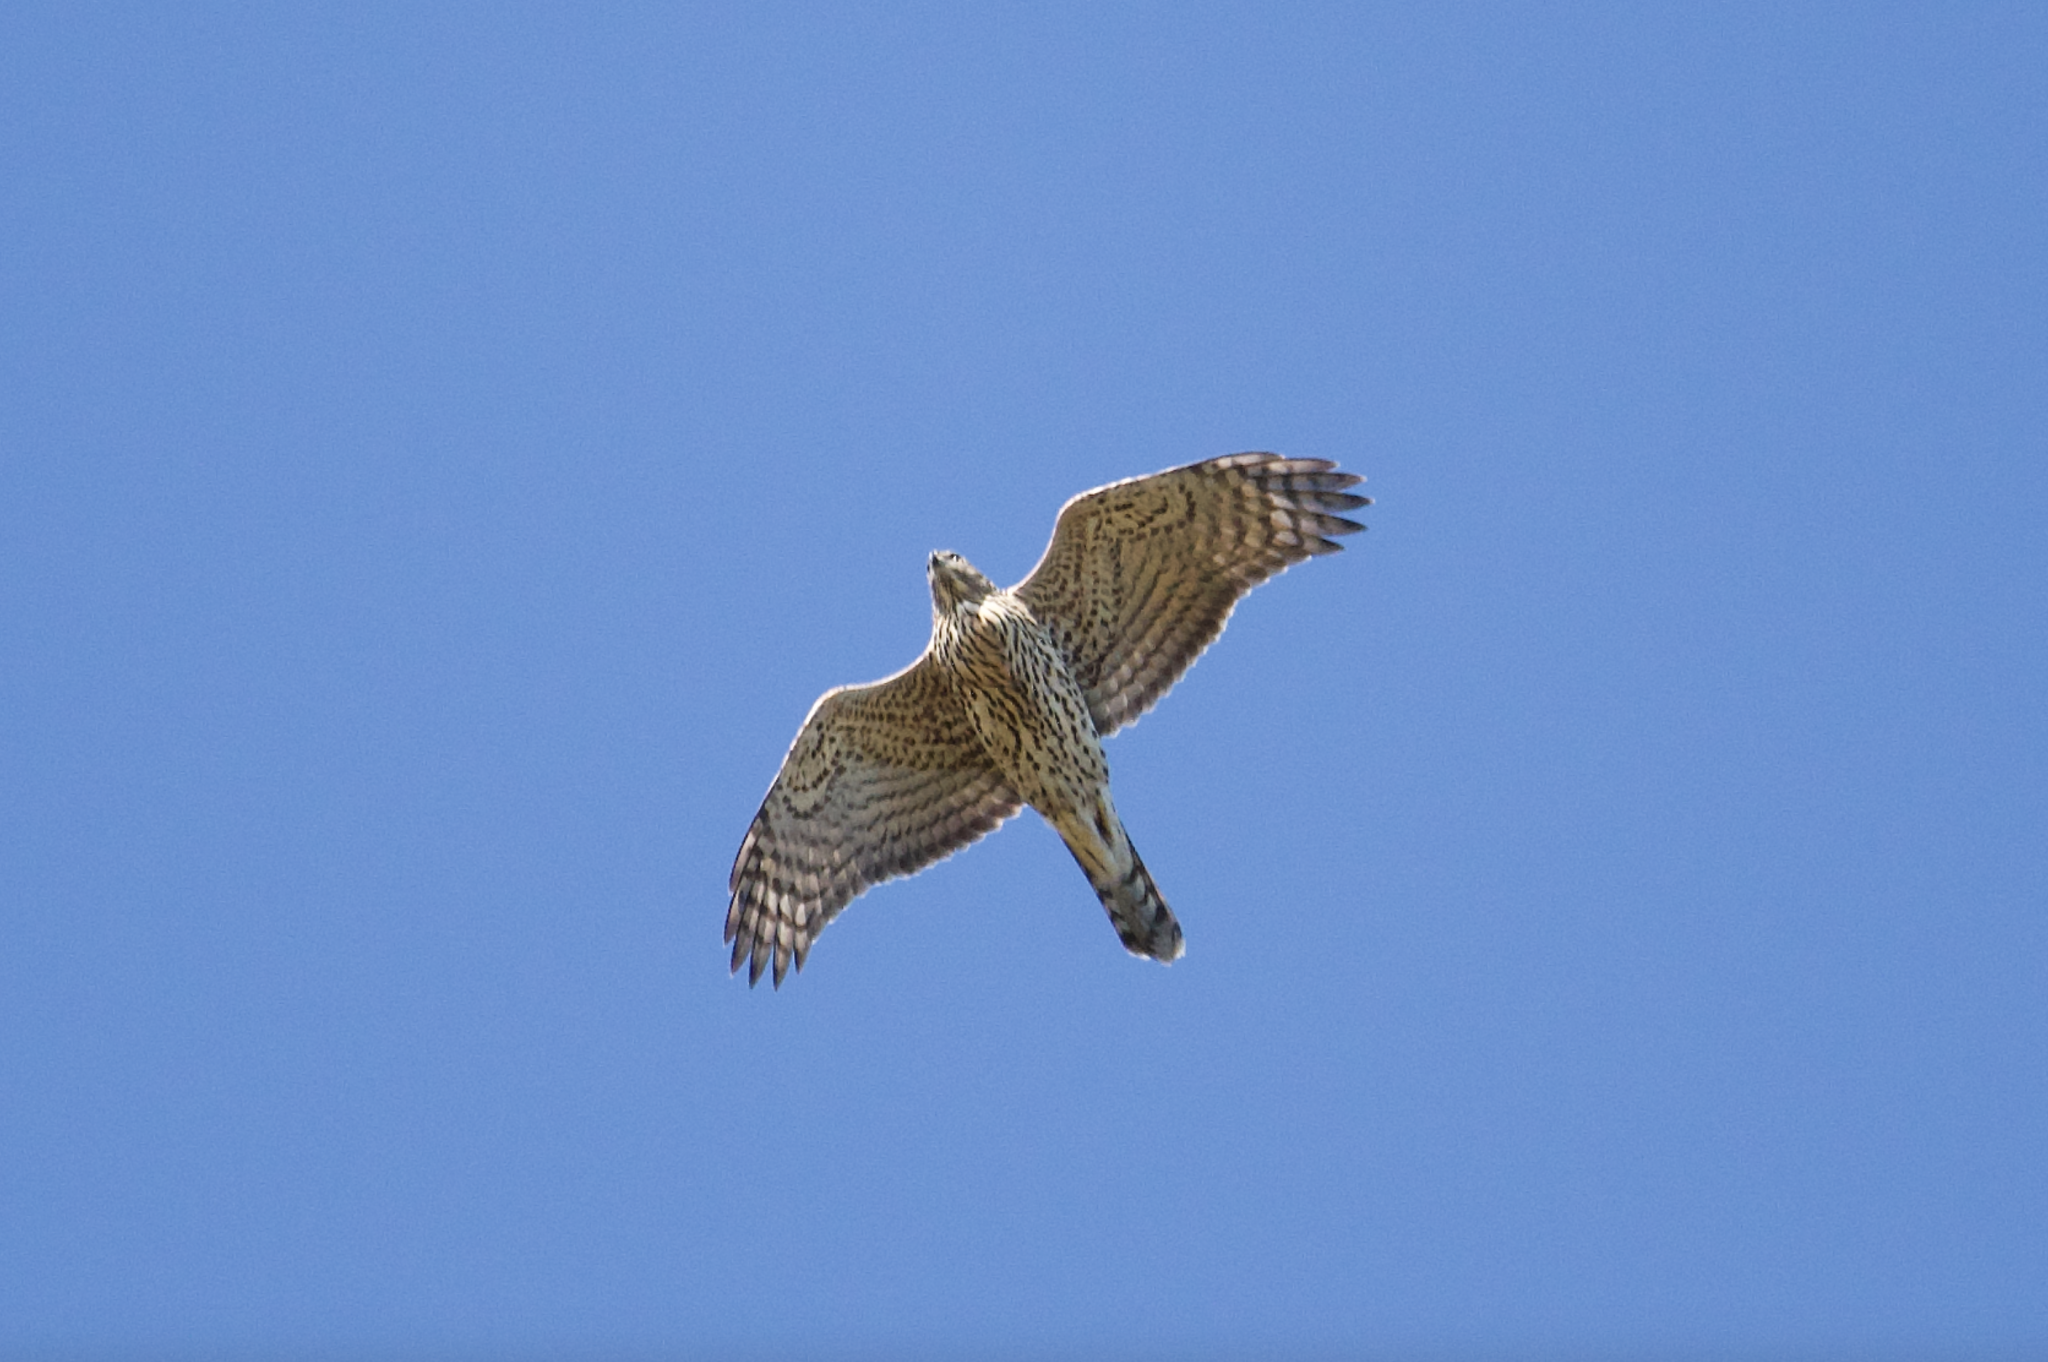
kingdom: Animalia
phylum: Chordata
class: Aves
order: Accipitriformes
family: Accipitridae
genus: Accipiter
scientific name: Accipiter gentilis
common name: Northern goshawk
